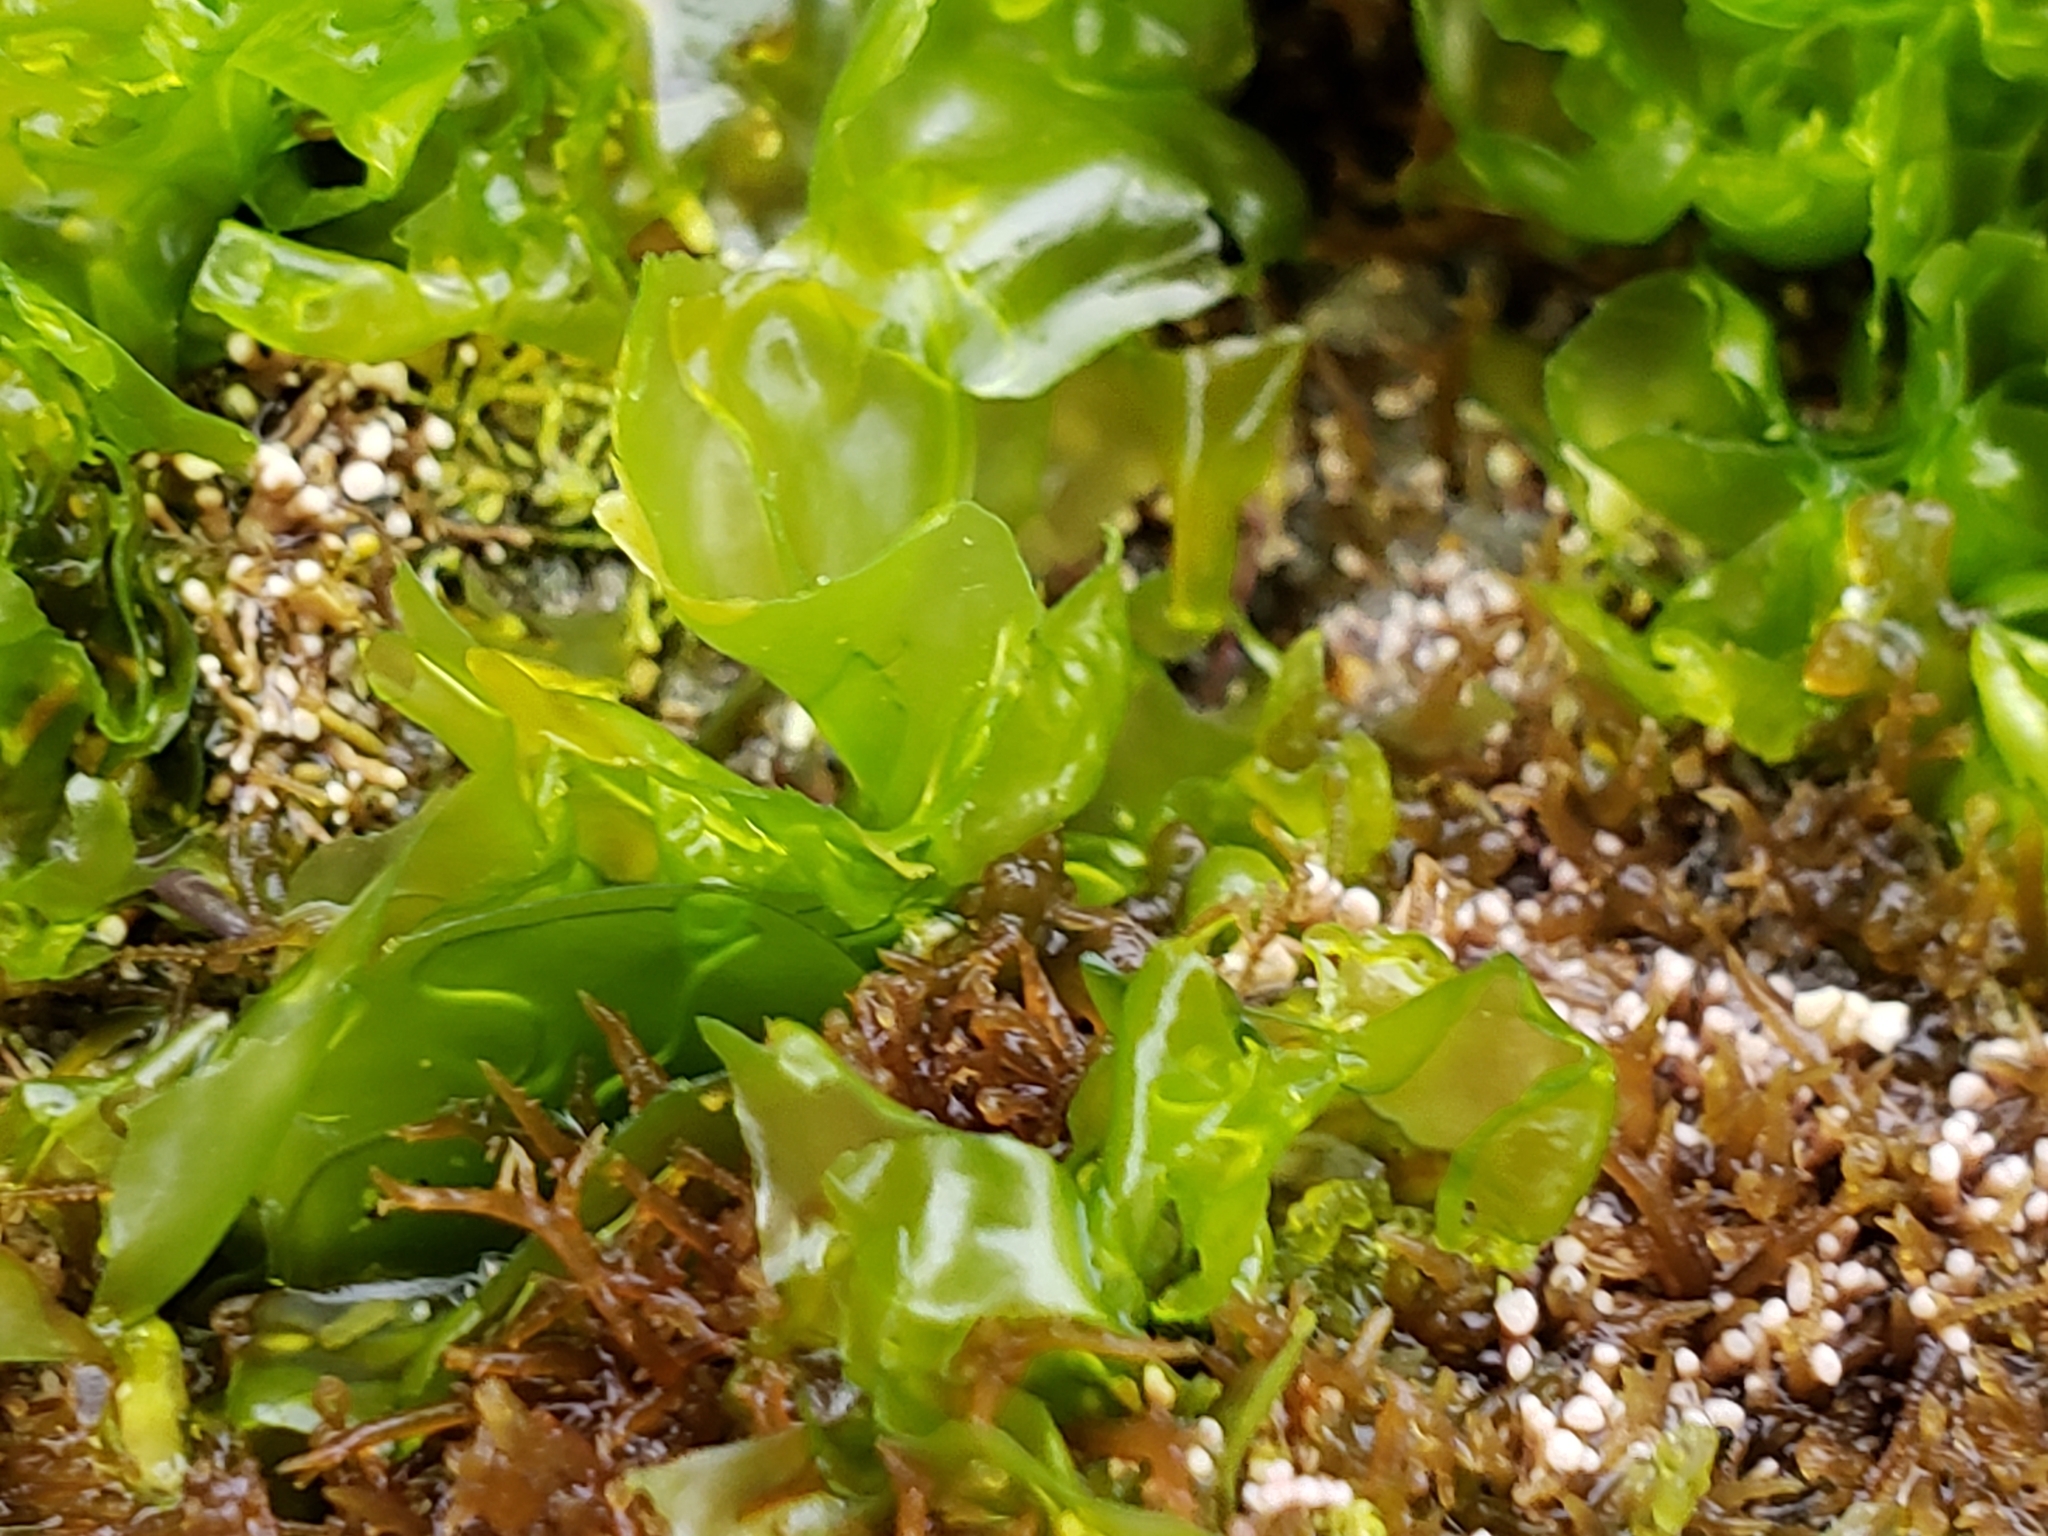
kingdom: Plantae
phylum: Chlorophyta
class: Ulvophyceae
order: Ulvales
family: Ulvaceae
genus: Ulva
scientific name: Ulva lactuca
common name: Sea lettuce
